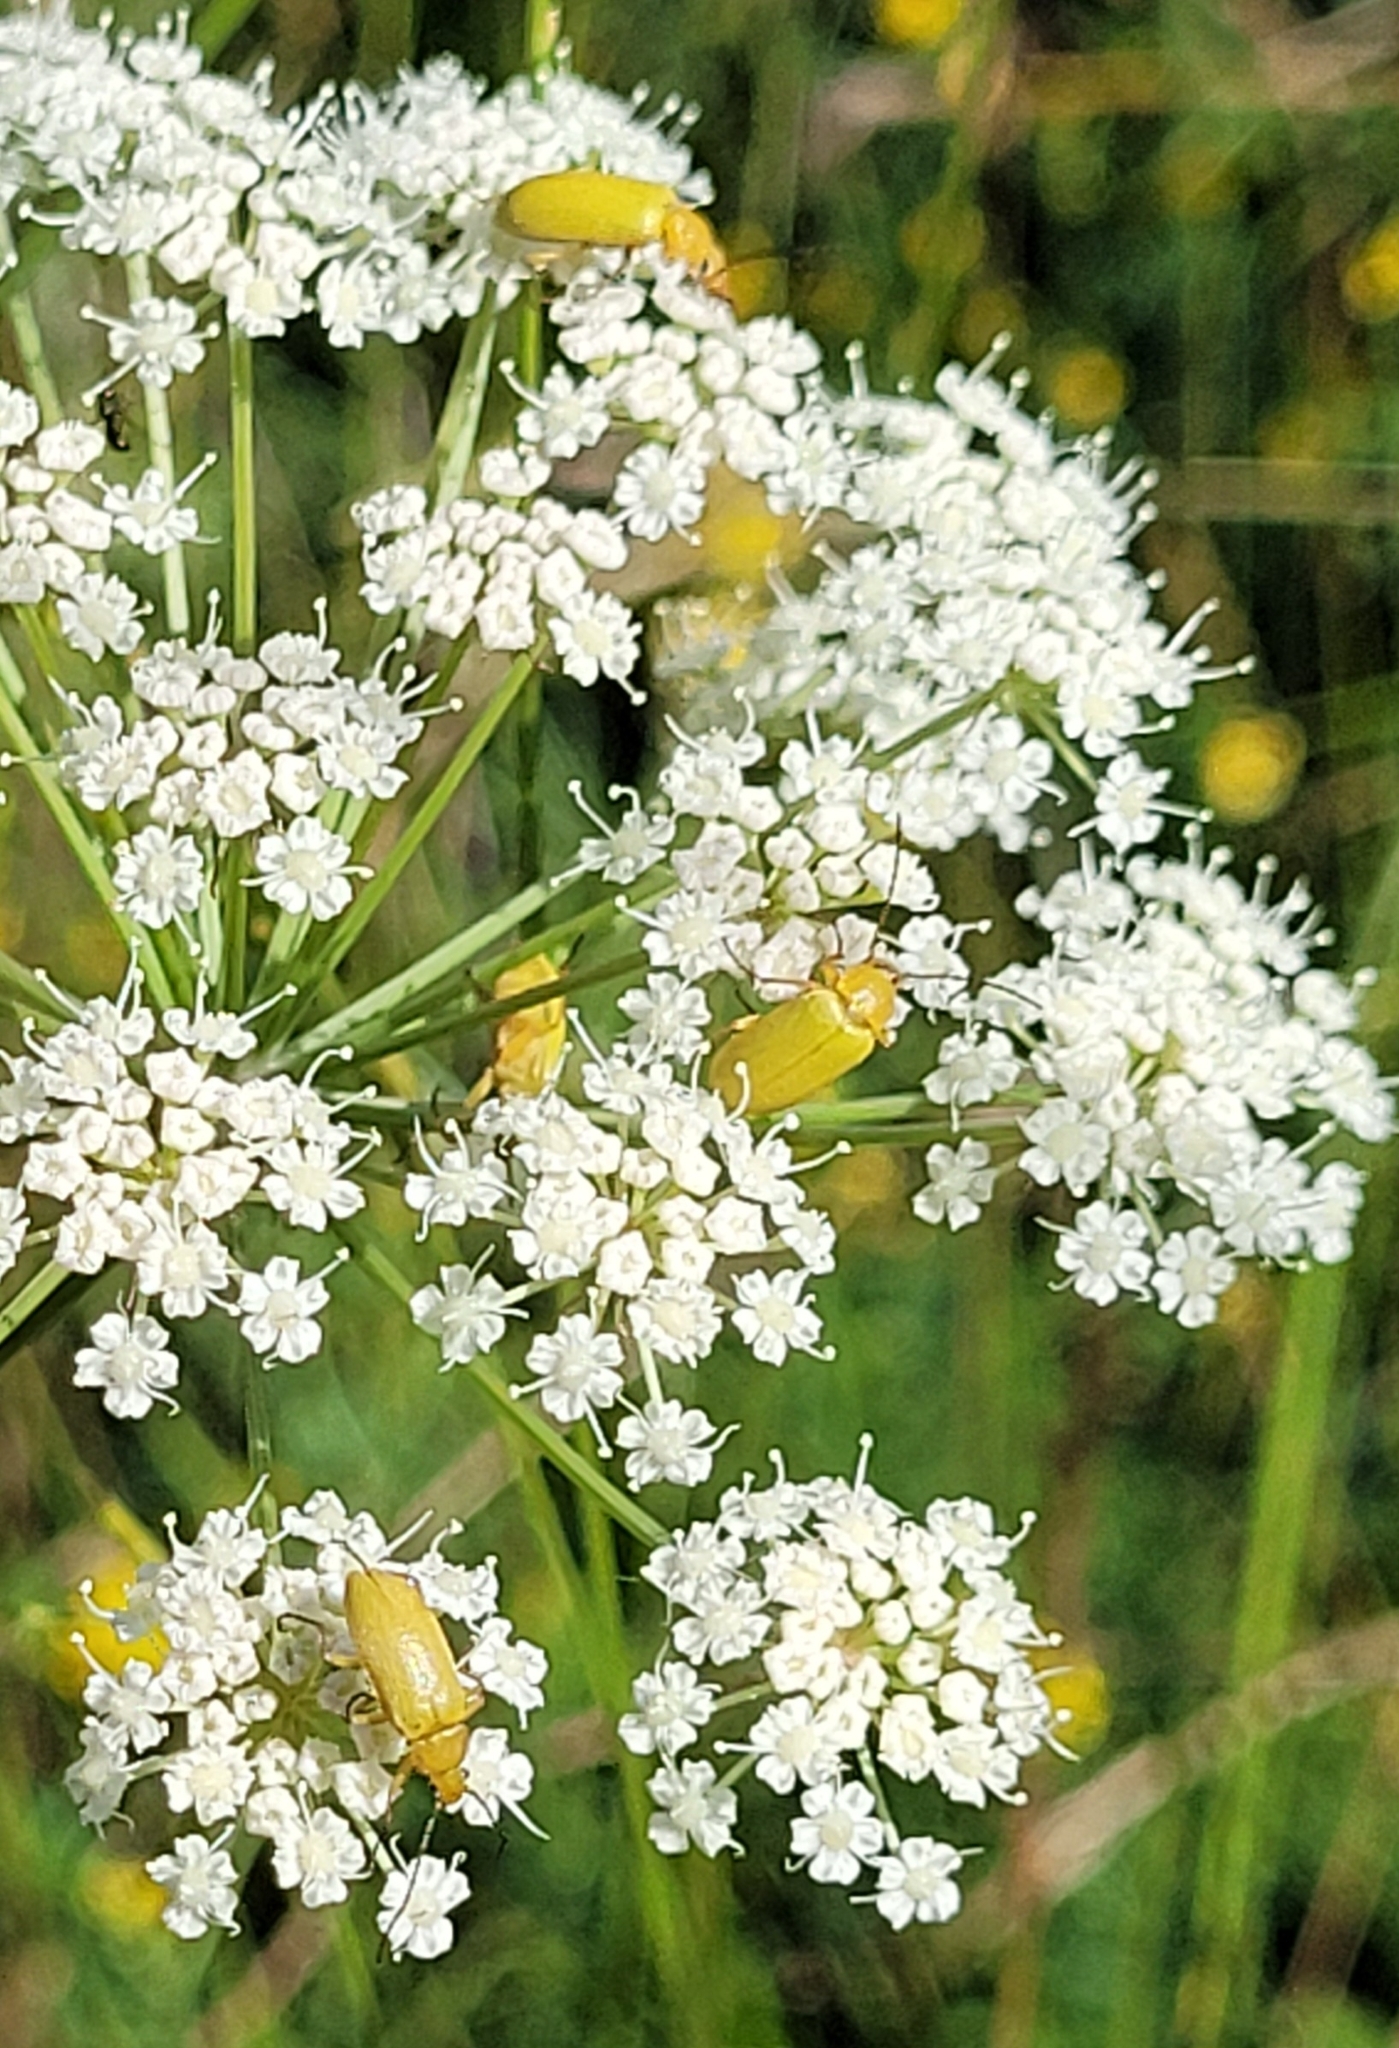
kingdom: Animalia
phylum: Arthropoda
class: Insecta
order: Coleoptera
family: Tenebrionidae
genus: Cteniopus
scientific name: Cteniopus sulphureus
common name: Sulphur beetle
